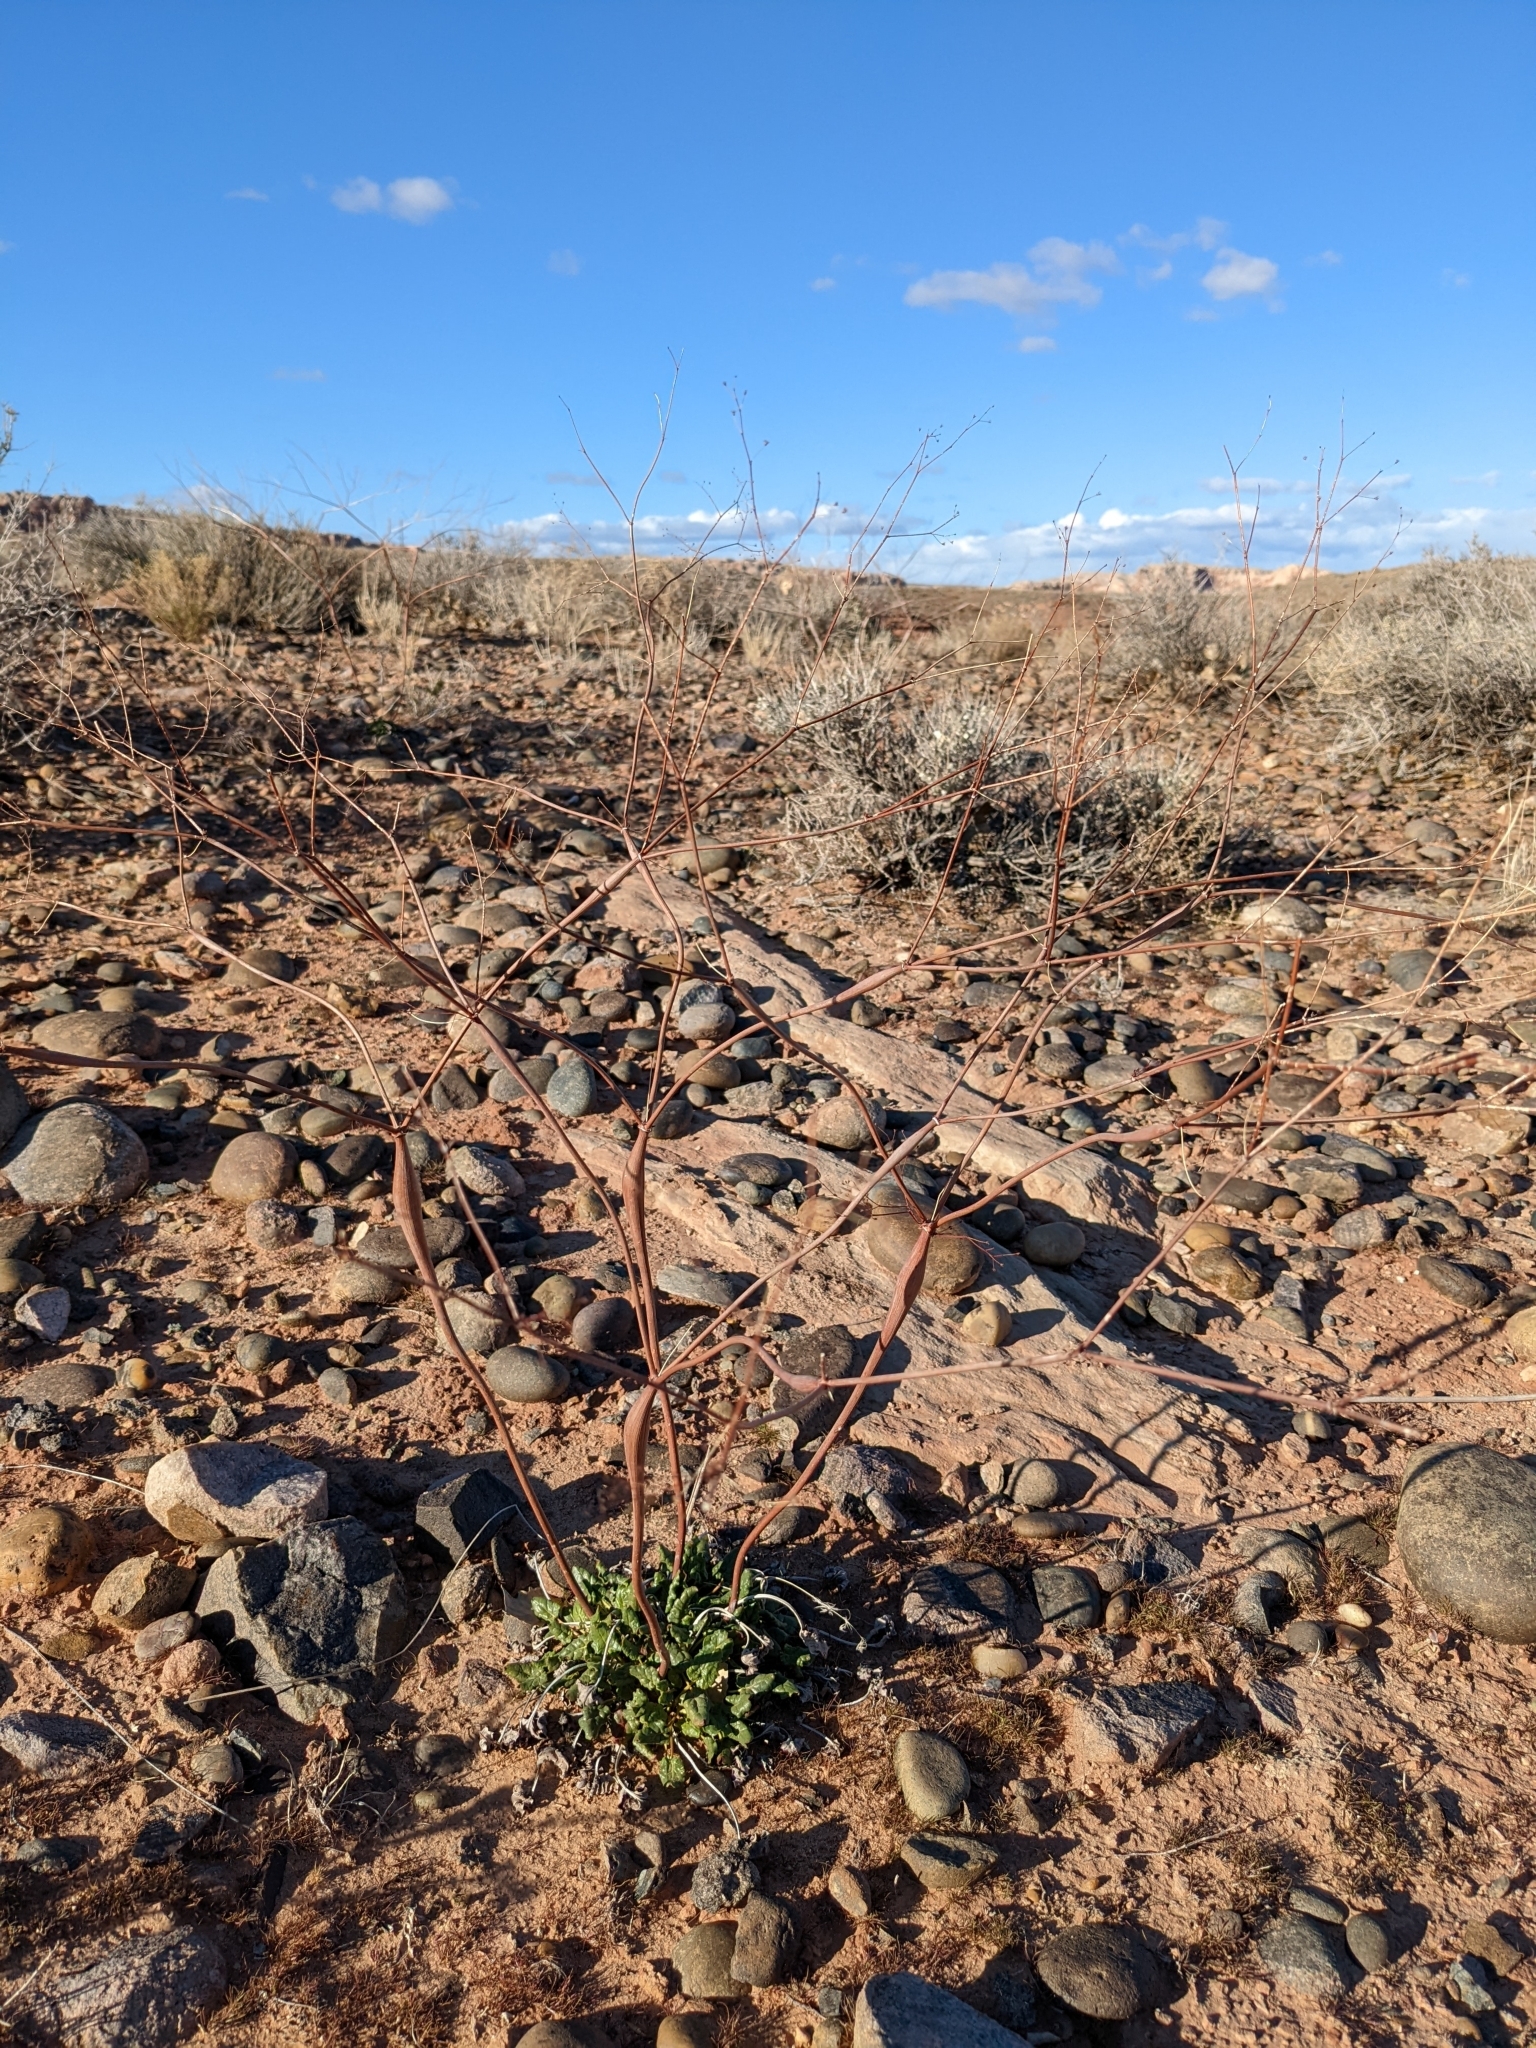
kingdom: Plantae
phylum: Tracheophyta
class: Magnoliopsida
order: Caryophyllales
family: Polygonaceae
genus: Eriogonum
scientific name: Eriogonum inflatum
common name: Desert trumpet
